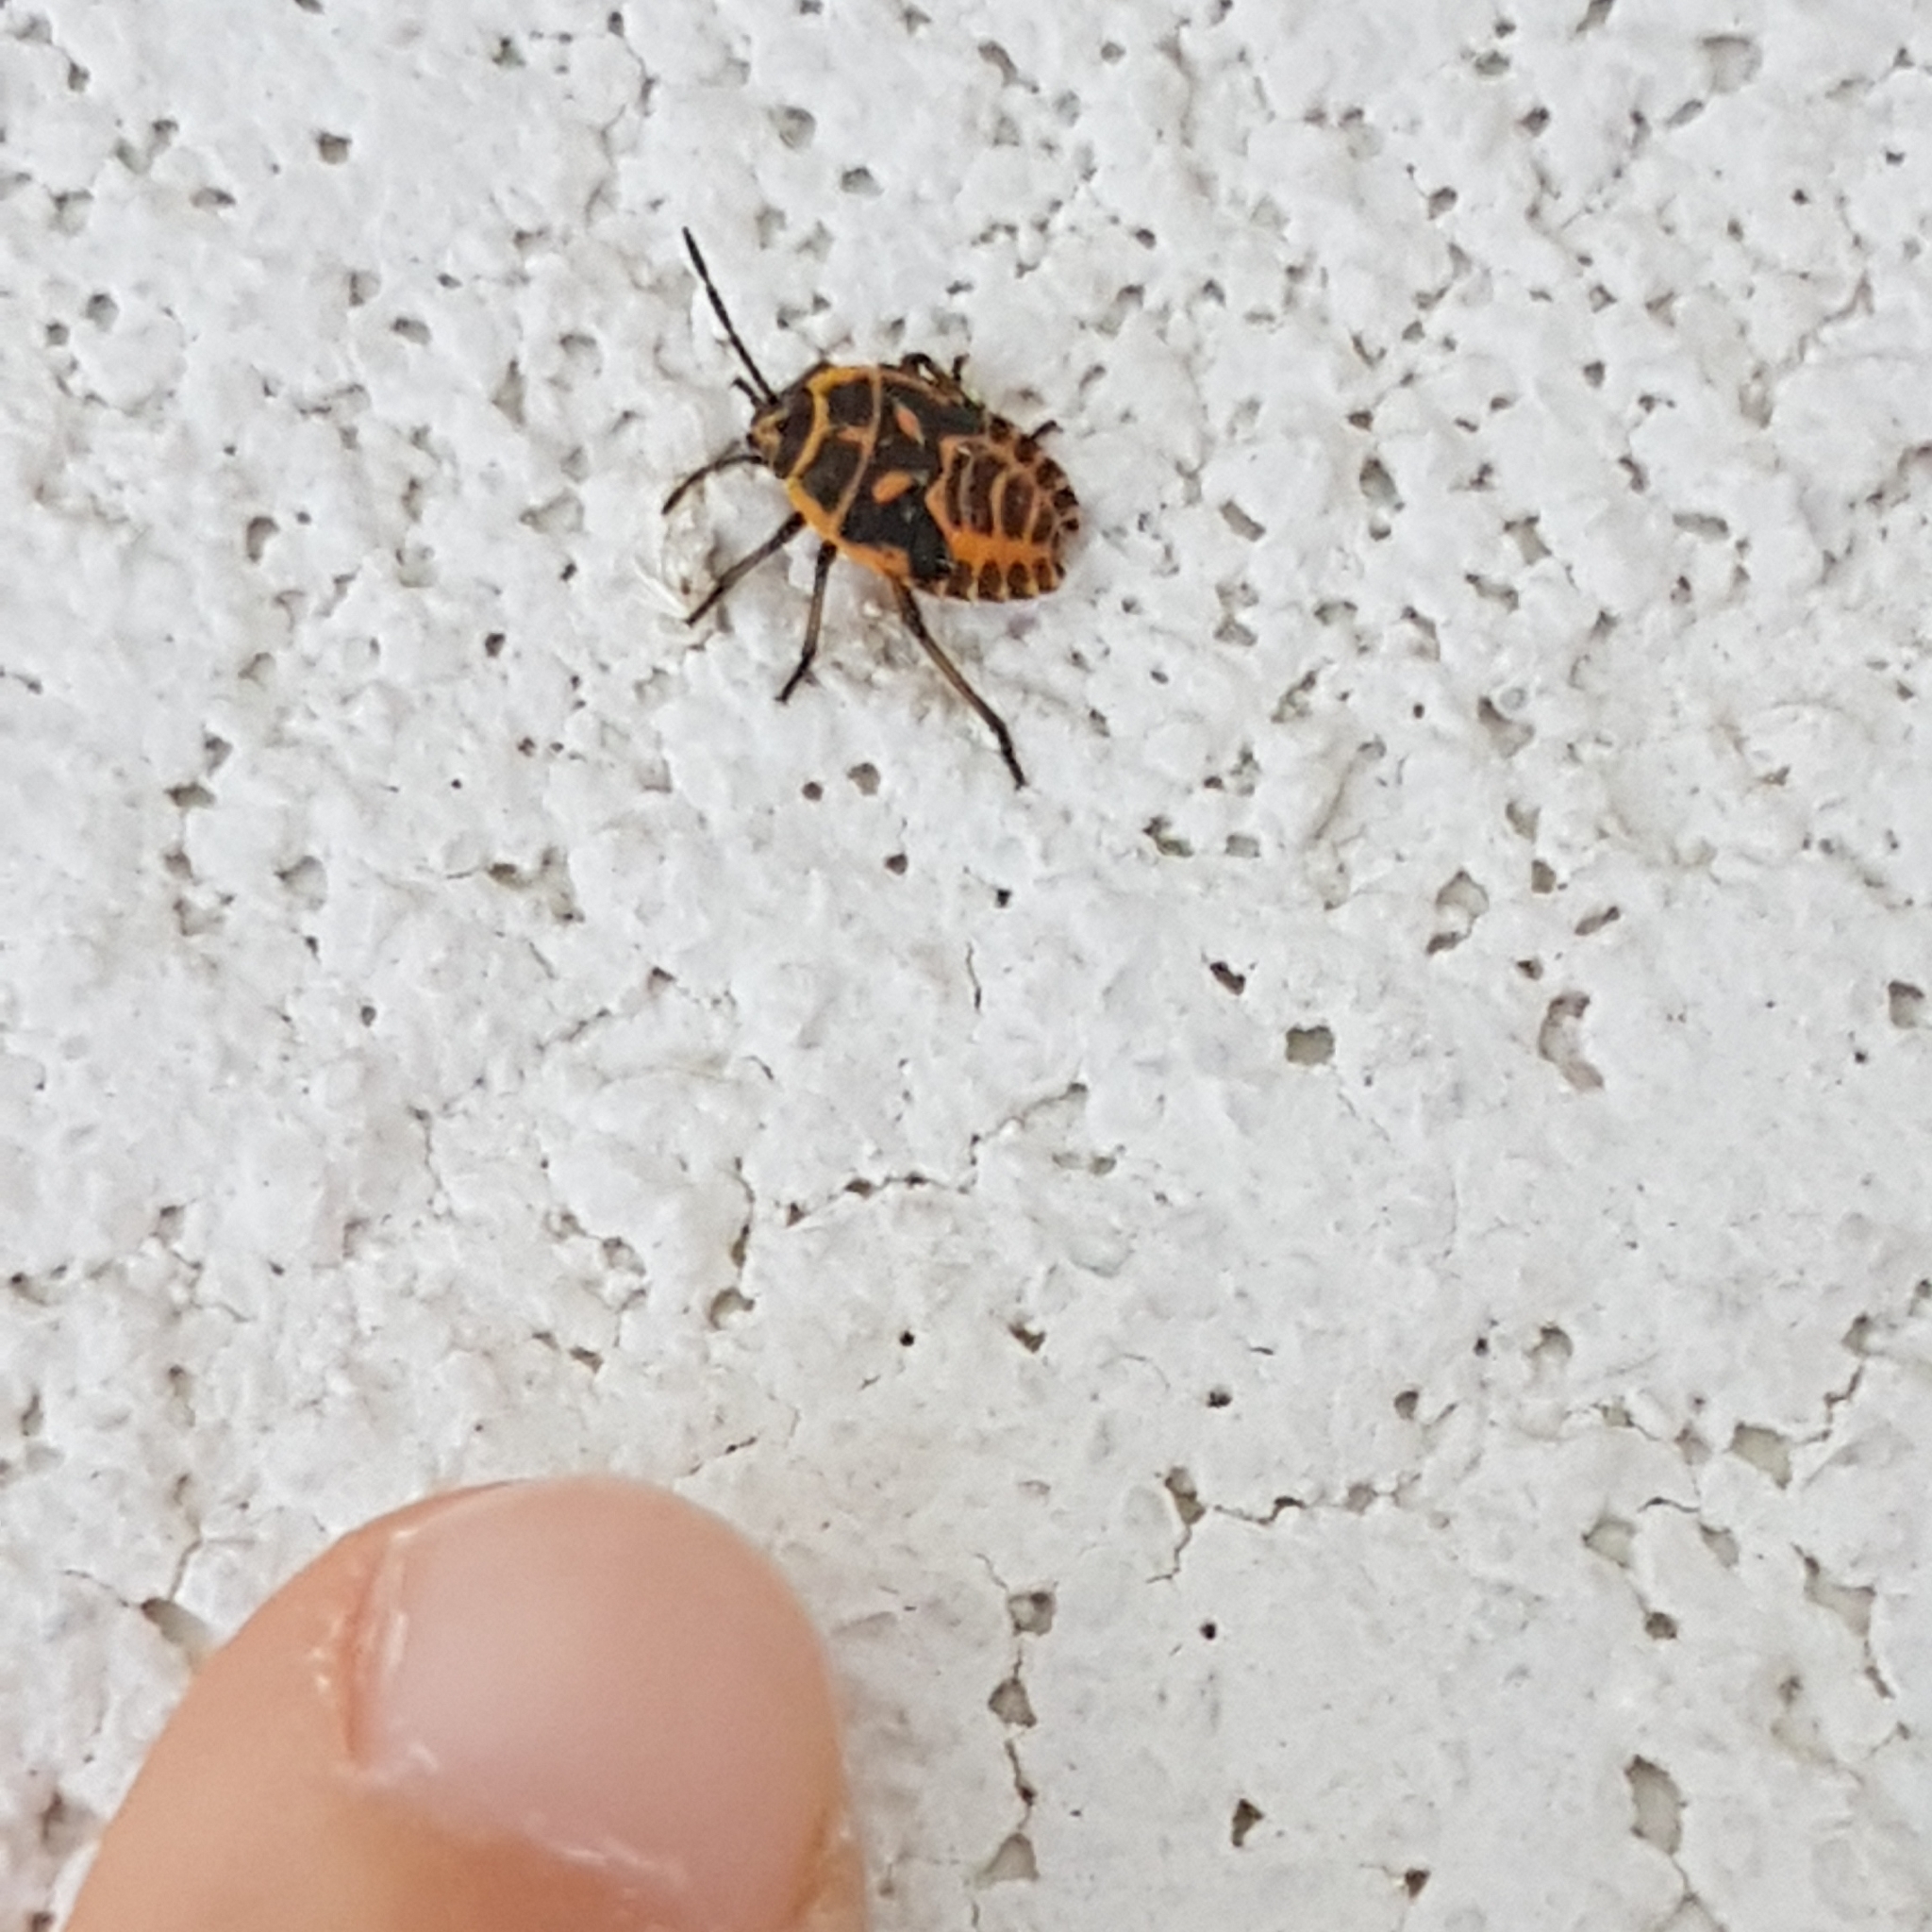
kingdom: Animalia
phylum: Arthropoda
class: Insecta
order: Hemiptera
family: Pentatomidae
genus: Eurydema
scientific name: Eurydema ventralis
